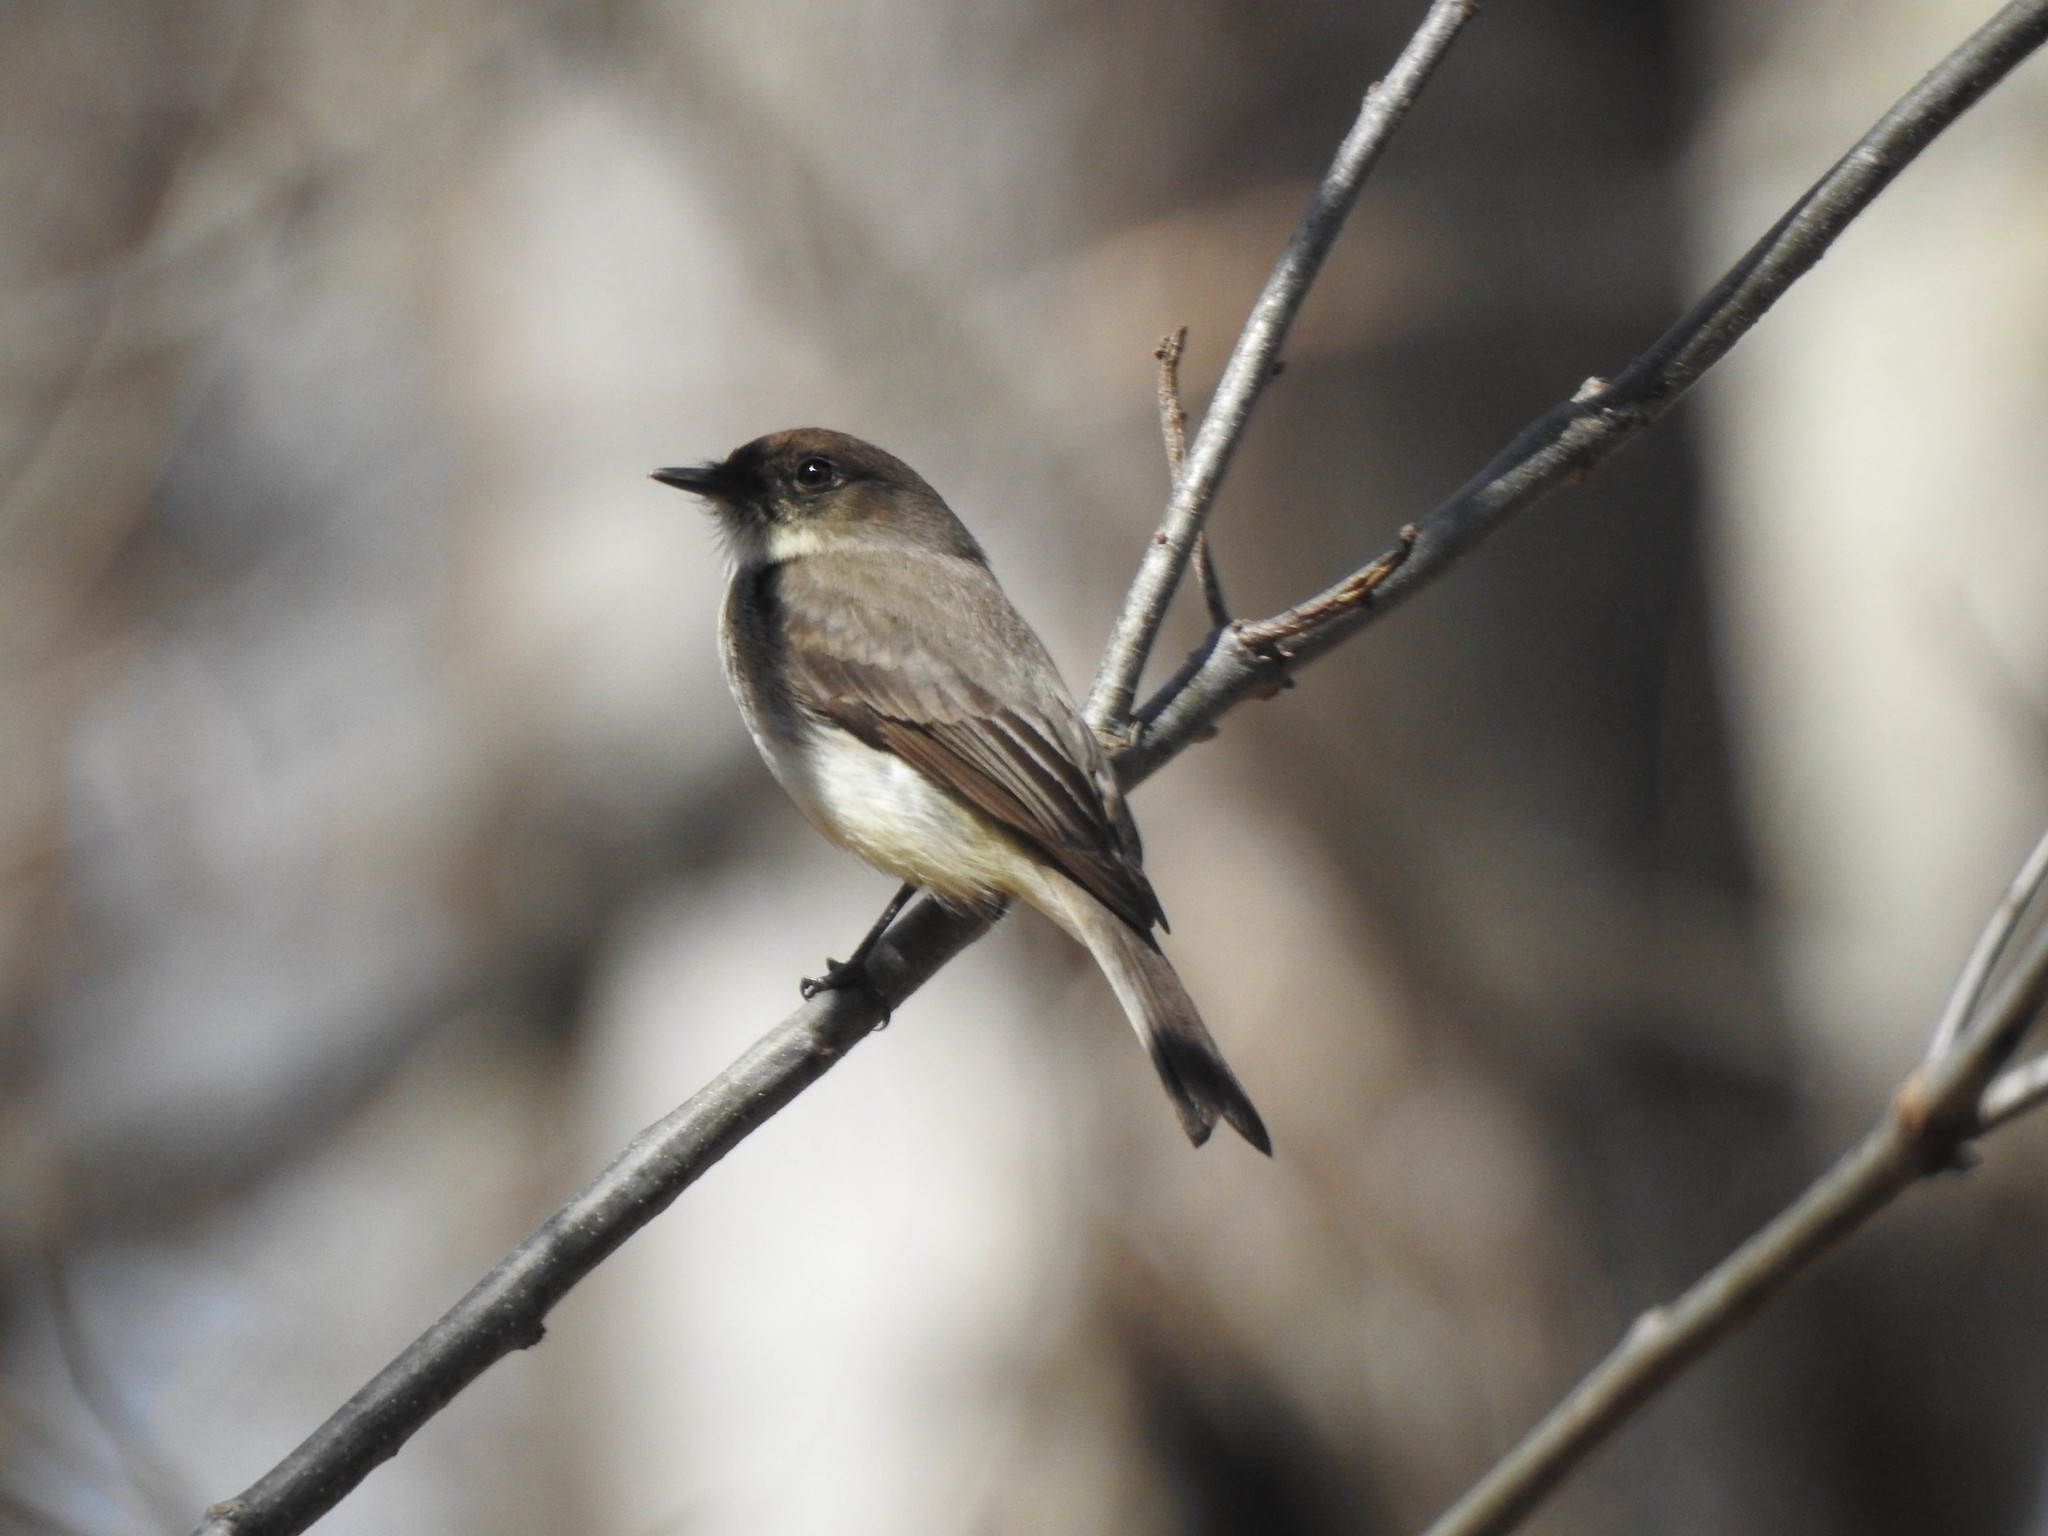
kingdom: Animalia
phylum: Chordata
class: Aves
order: Passeriformes
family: Tyrannidae
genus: Sayornis
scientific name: Sayornis phoebe
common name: Eastern phoebe
